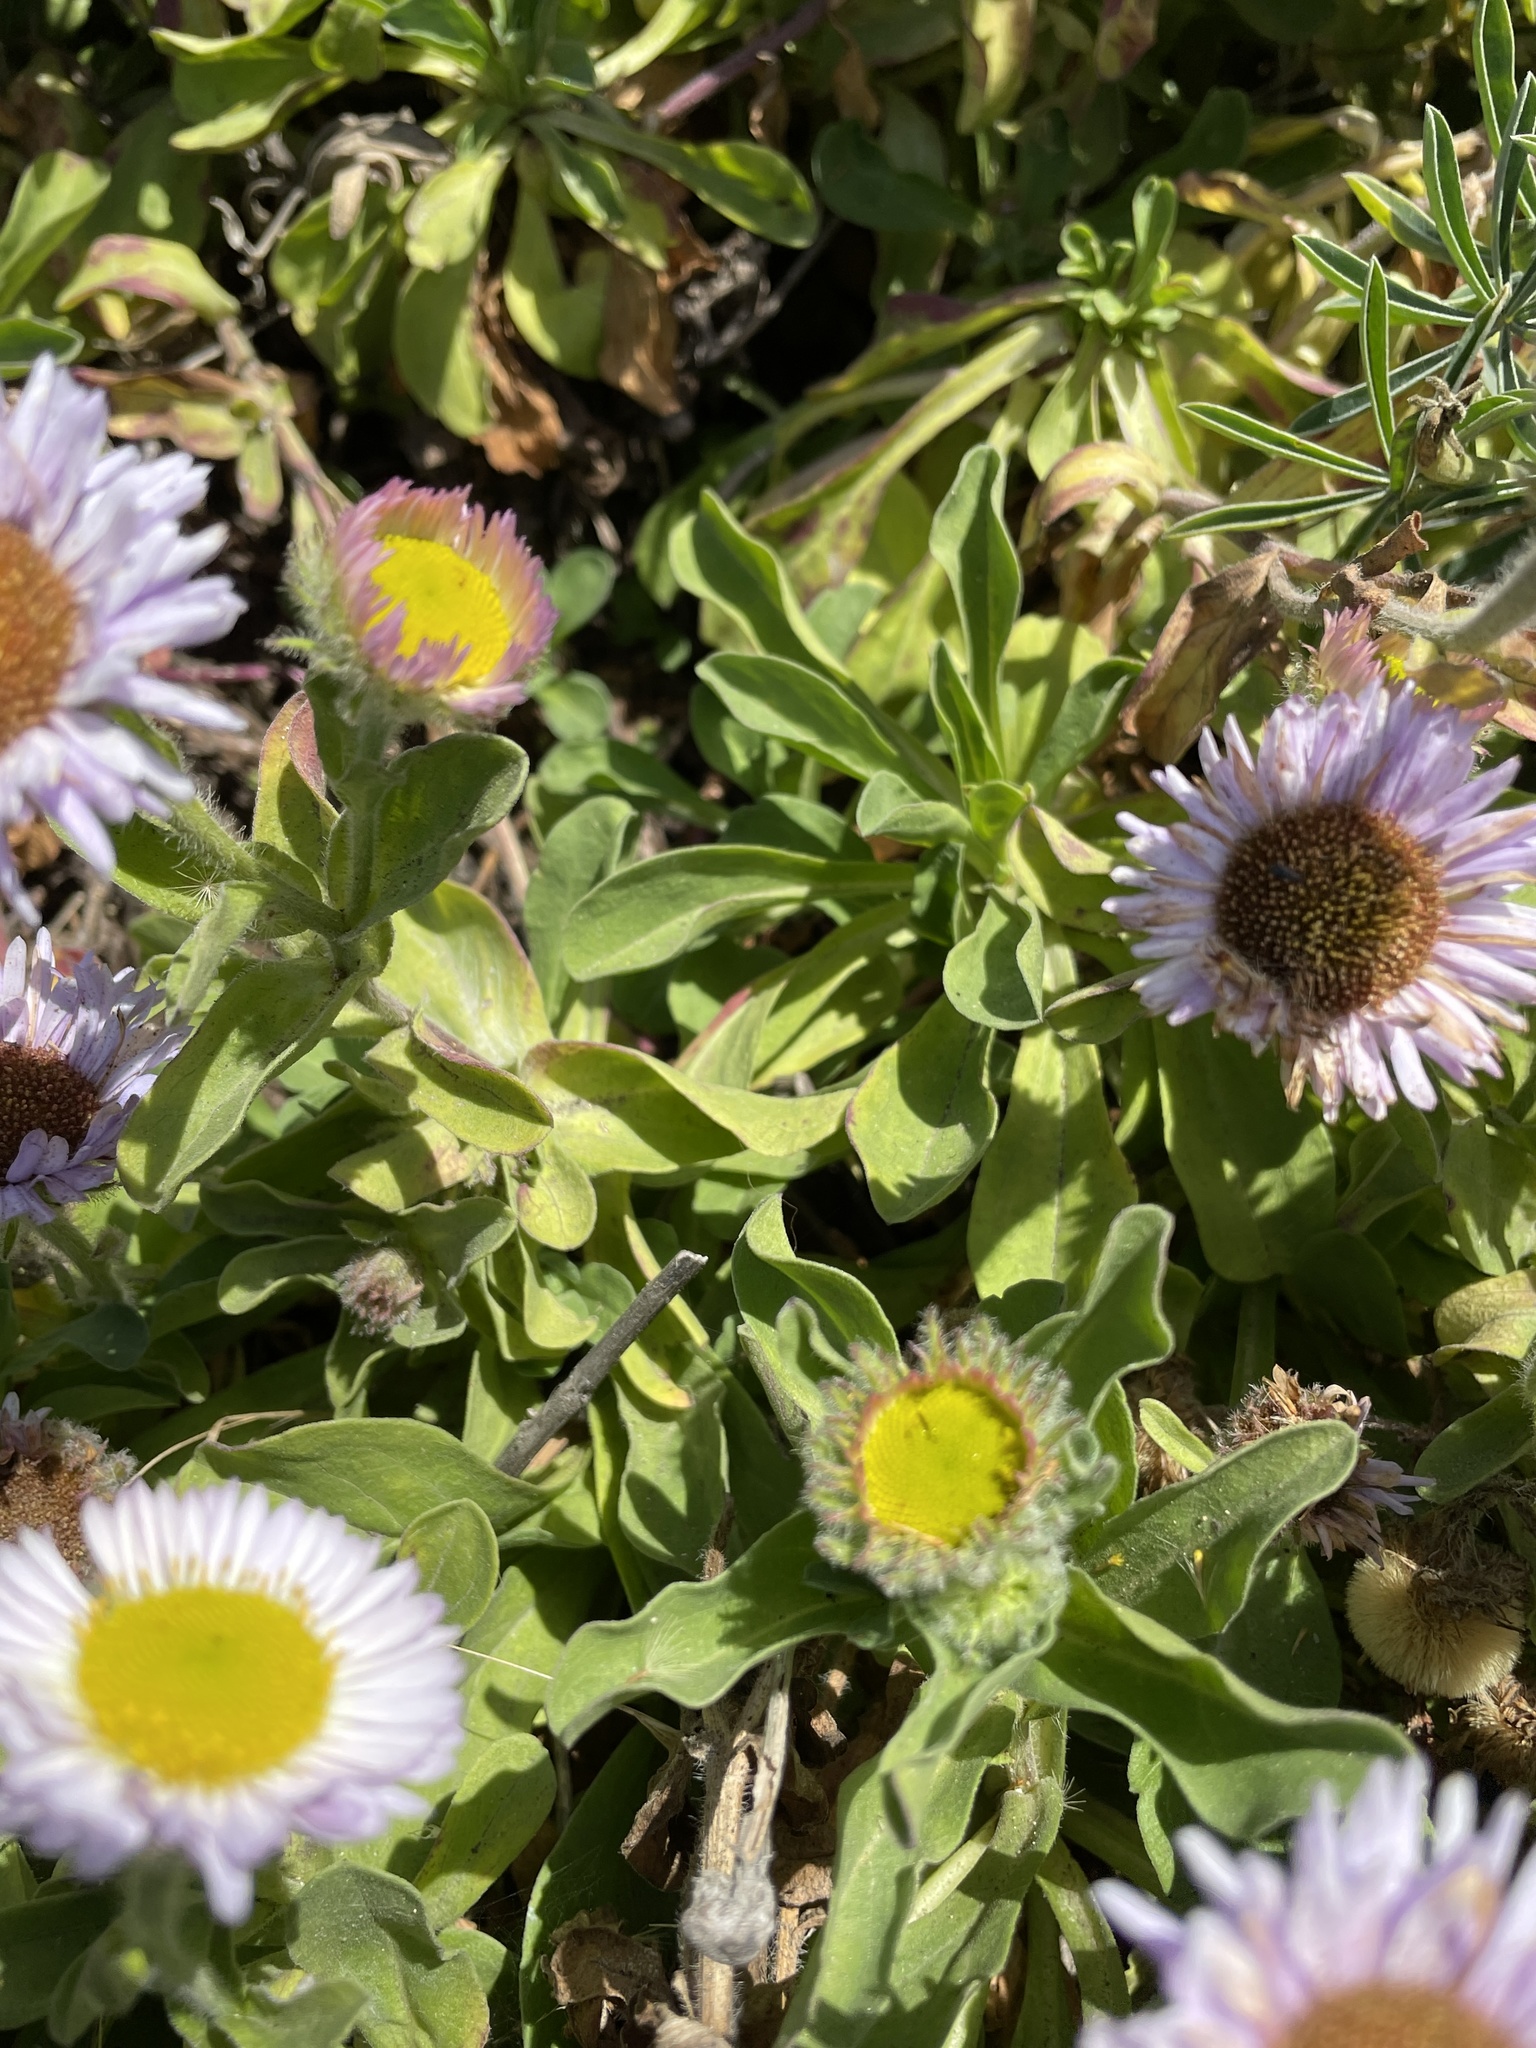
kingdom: Plantae
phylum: Tracheophyta
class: Magnoliopsida
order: Asterales
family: Asteraceae
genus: Erigeron
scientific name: Erigeron glaucus
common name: Seaside daisy
